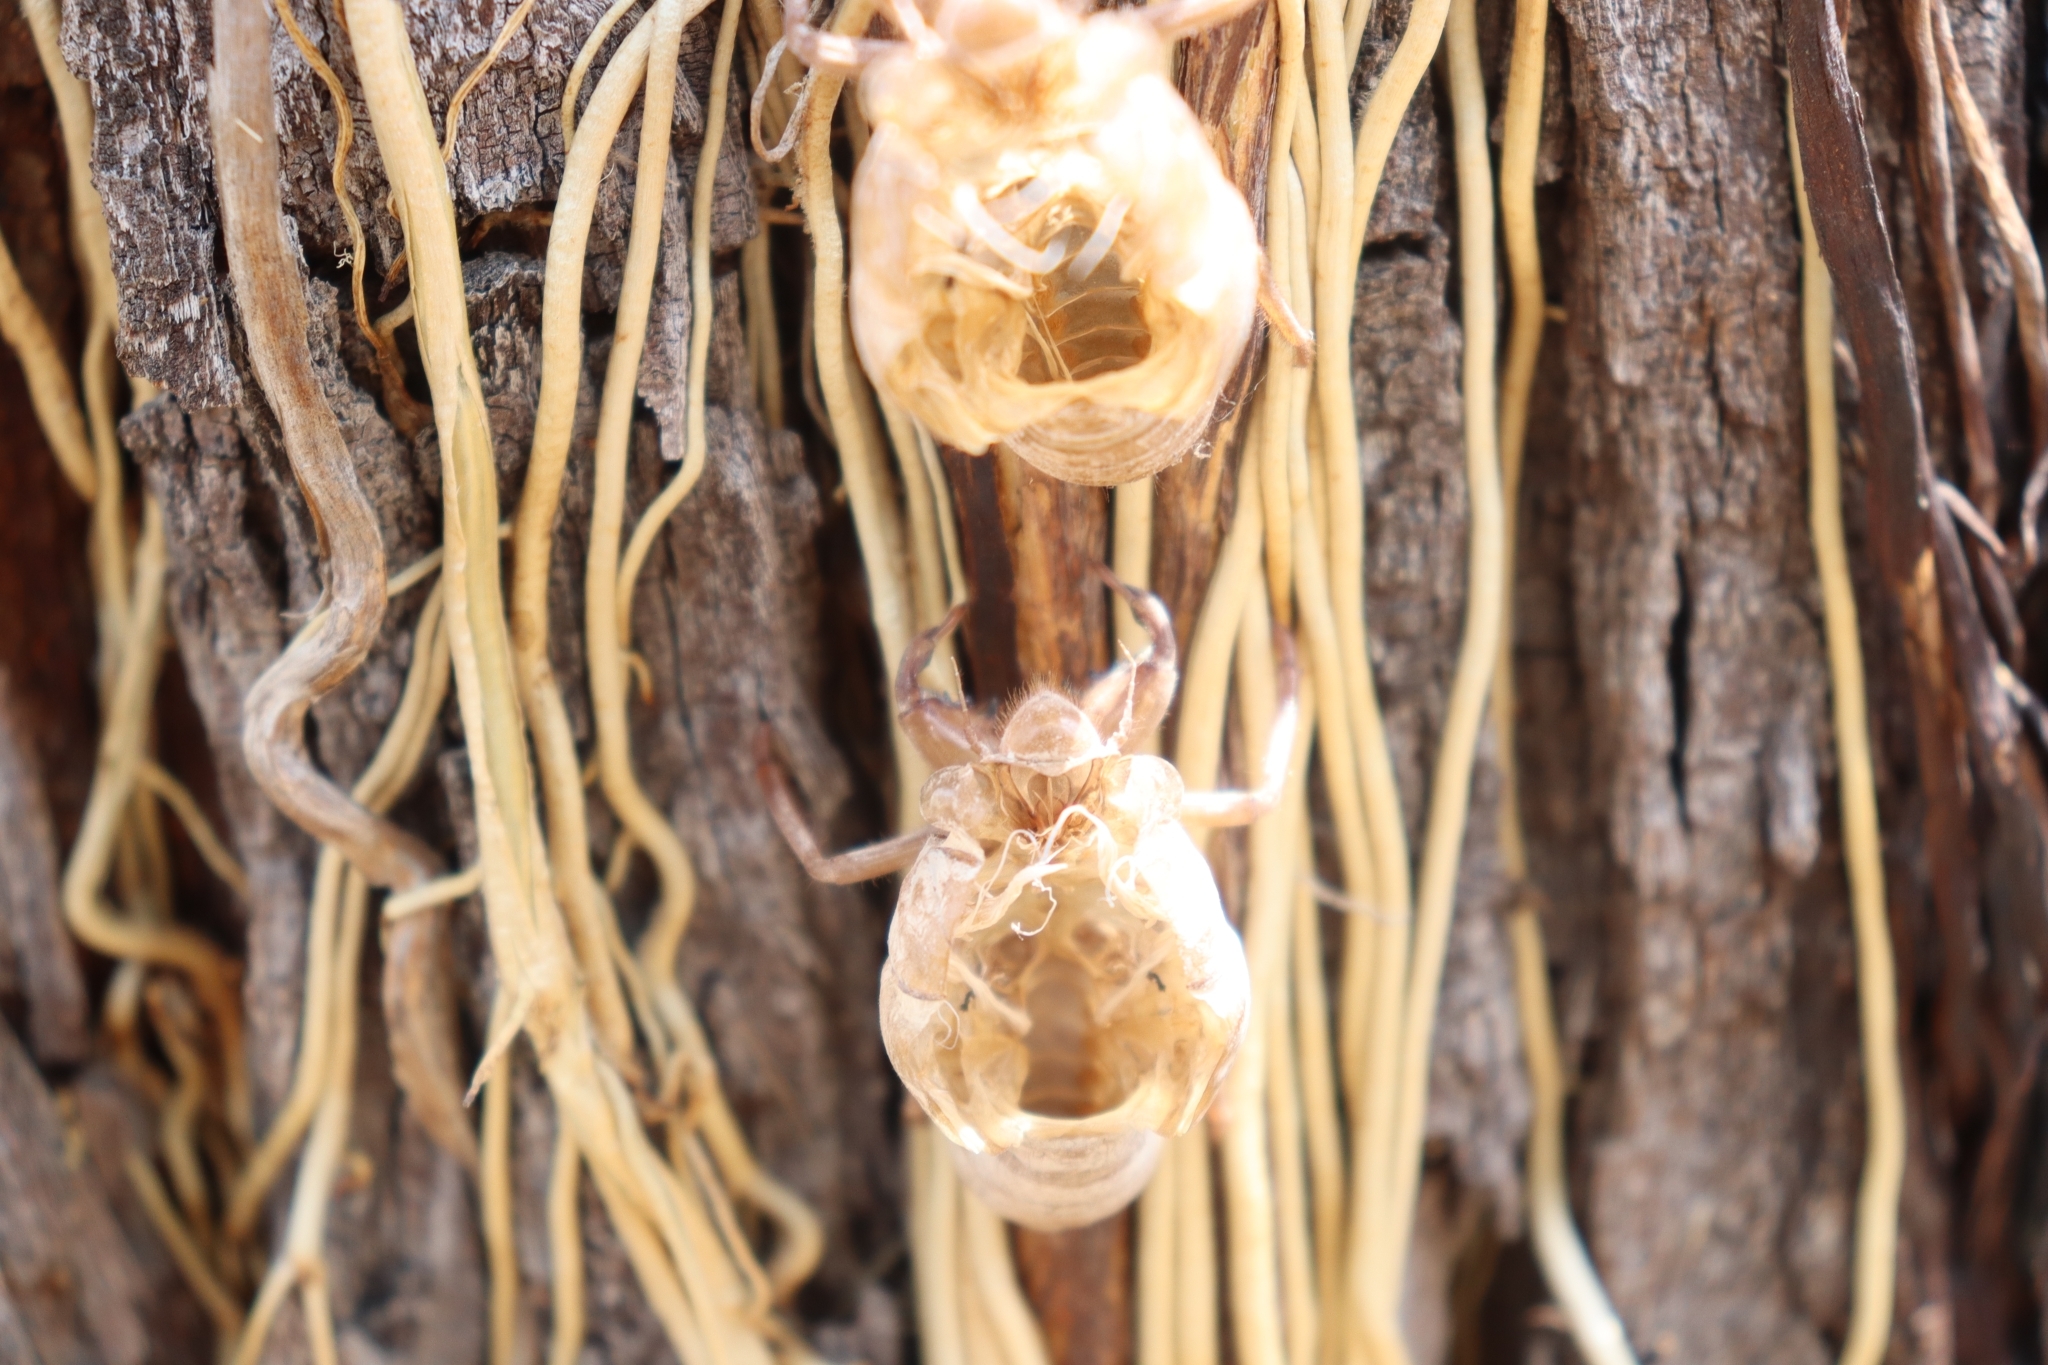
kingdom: Animalia
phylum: Arthropoda
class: Insecta
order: Hemiptera
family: Cicadidae
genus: Quesada
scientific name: Quesada gigas
